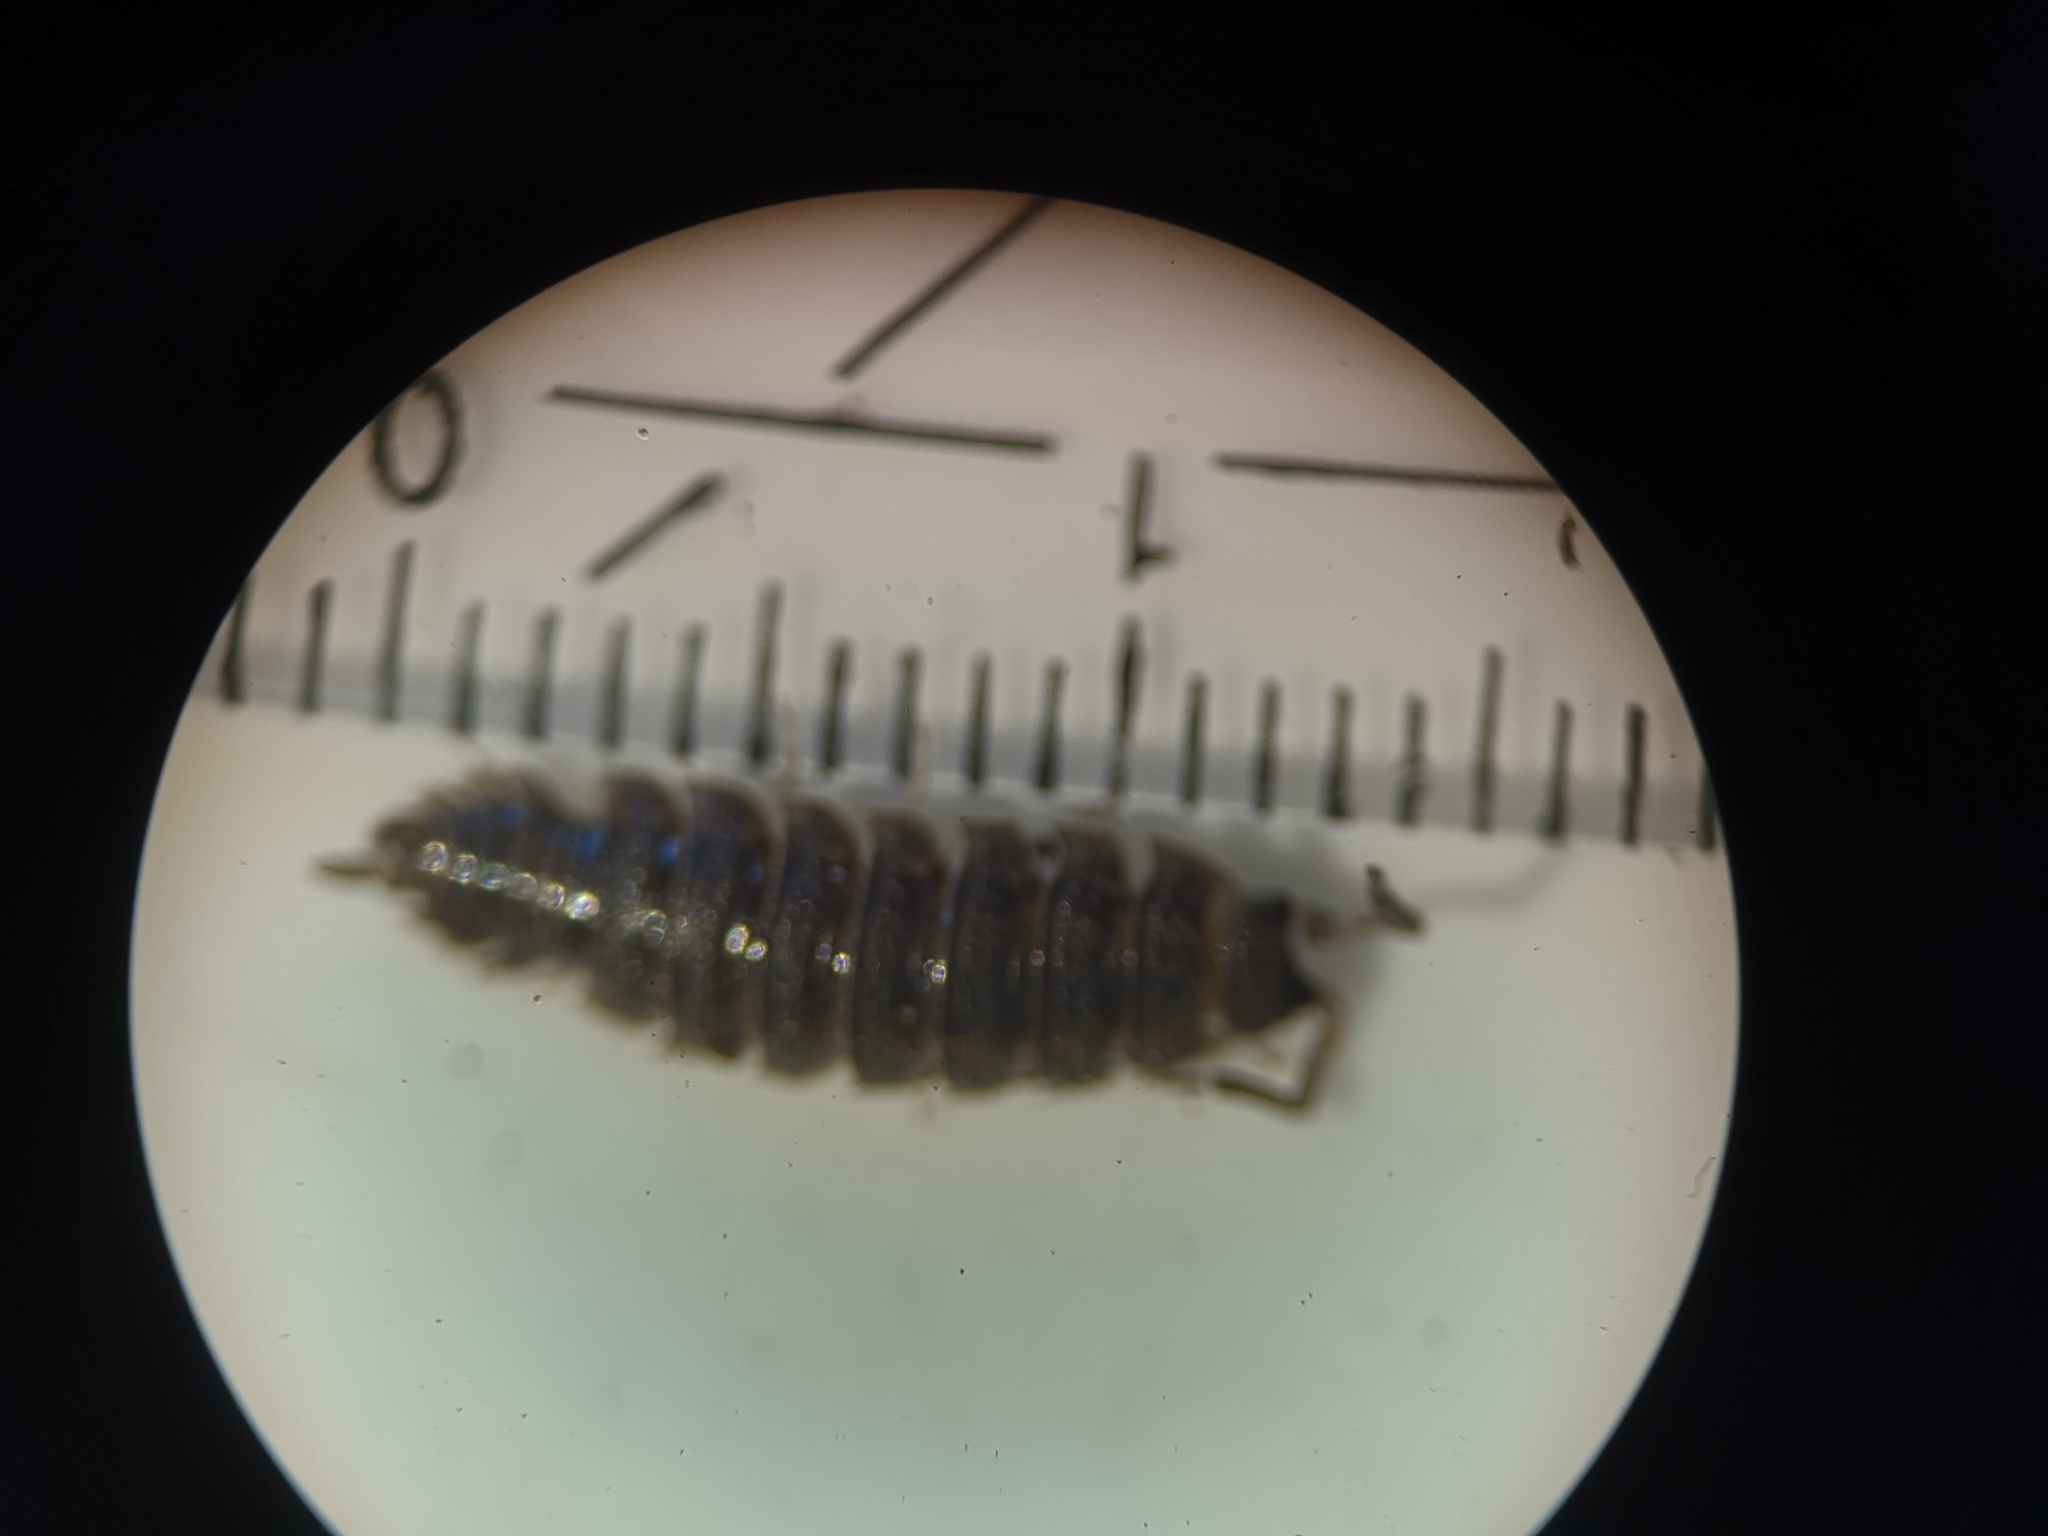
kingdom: Animalia
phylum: Arthropoda
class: Malacostraca
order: Isopoda
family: Porcellionidae
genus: Porcellio
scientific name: Porcellio scaber
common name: Common rough woodlouse
